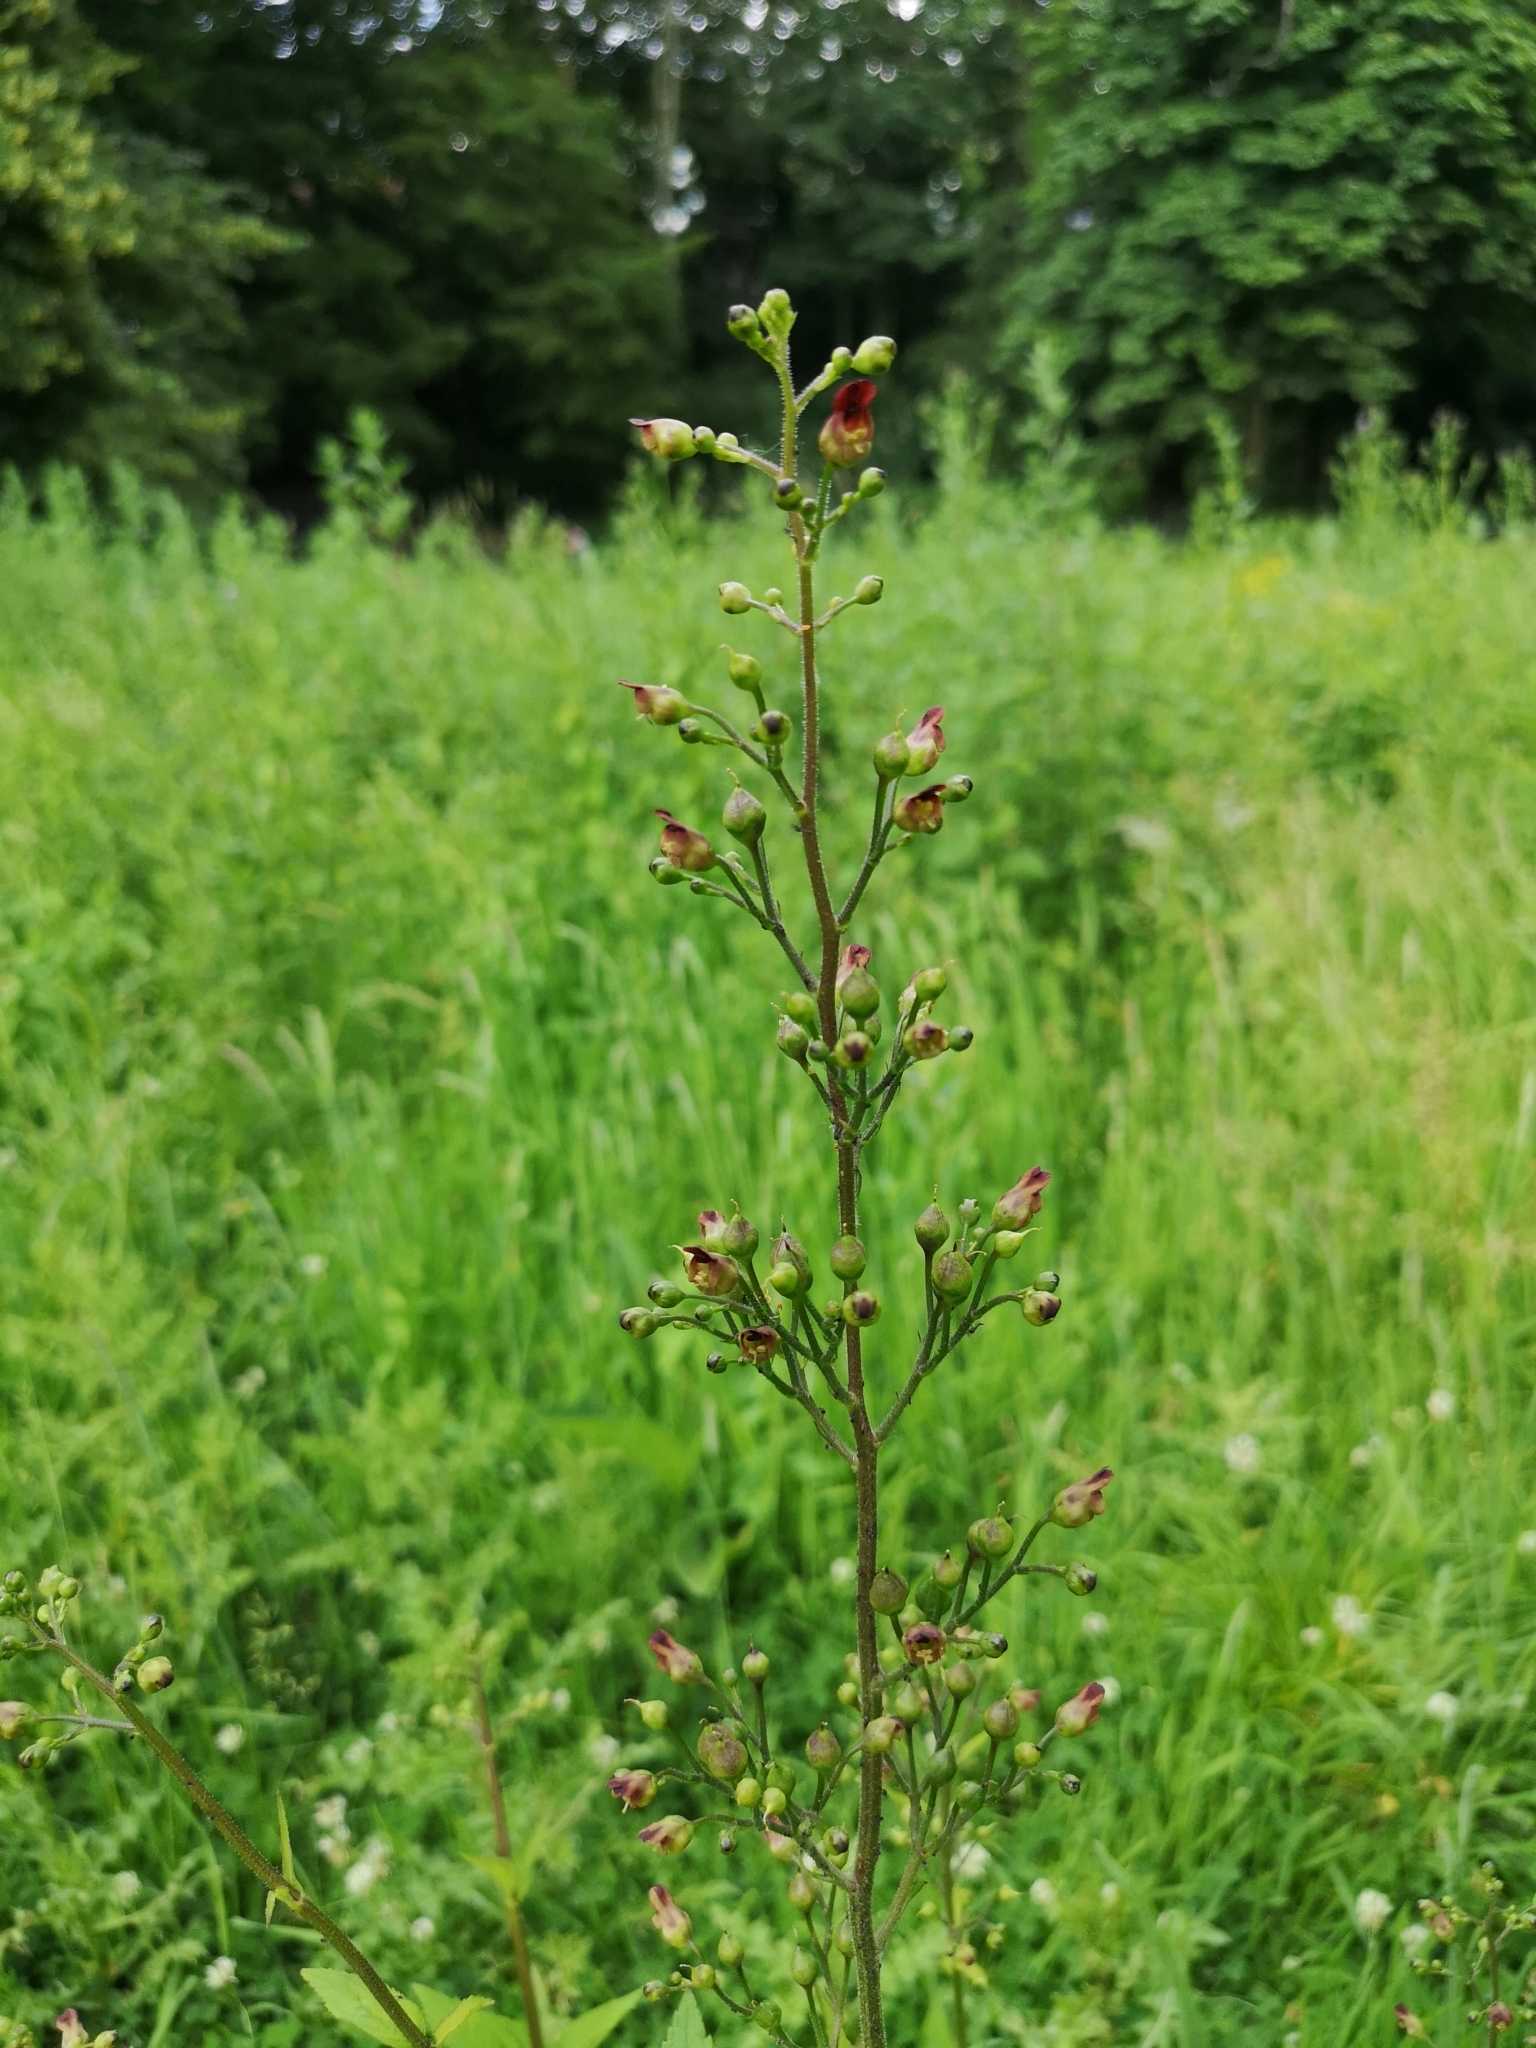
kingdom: Plantae
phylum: Tracheophyta
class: Magnoliopsida
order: Lamiales
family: Scrophulariaceae
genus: Scrophularia
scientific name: Scrophularia nodosa
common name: Common figwort
